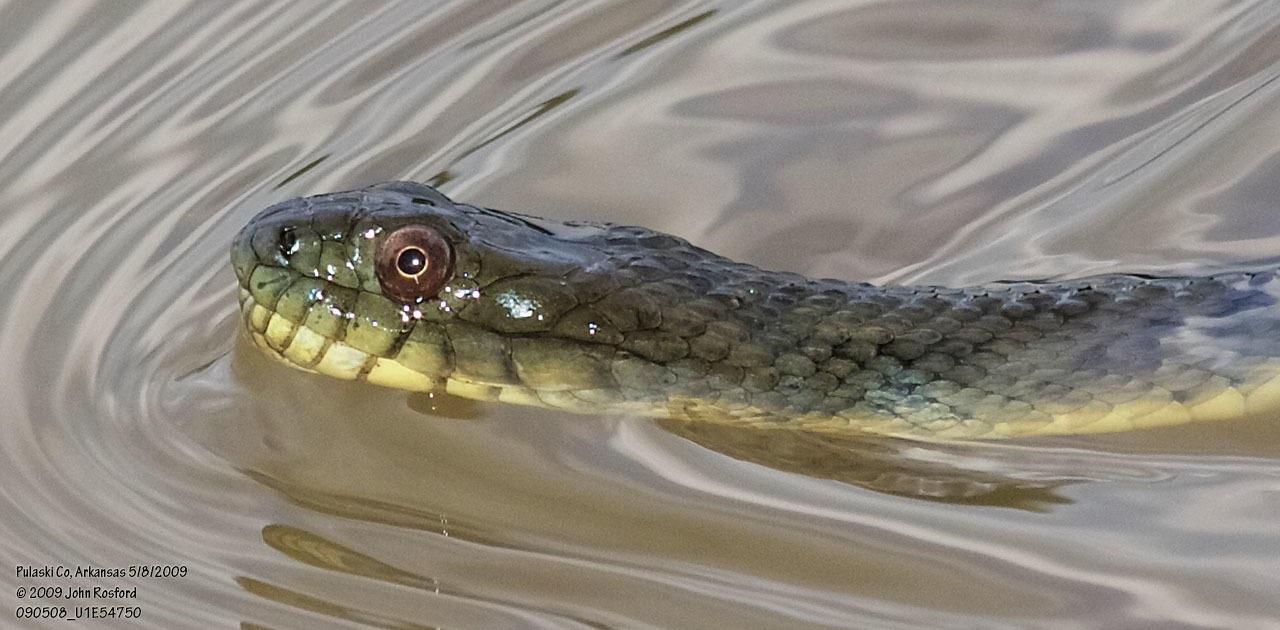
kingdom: Animalia
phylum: Chordata
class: Squamata
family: Colubridae
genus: Nerodia
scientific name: Nerodia rhombifer
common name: Diamondback water snake
